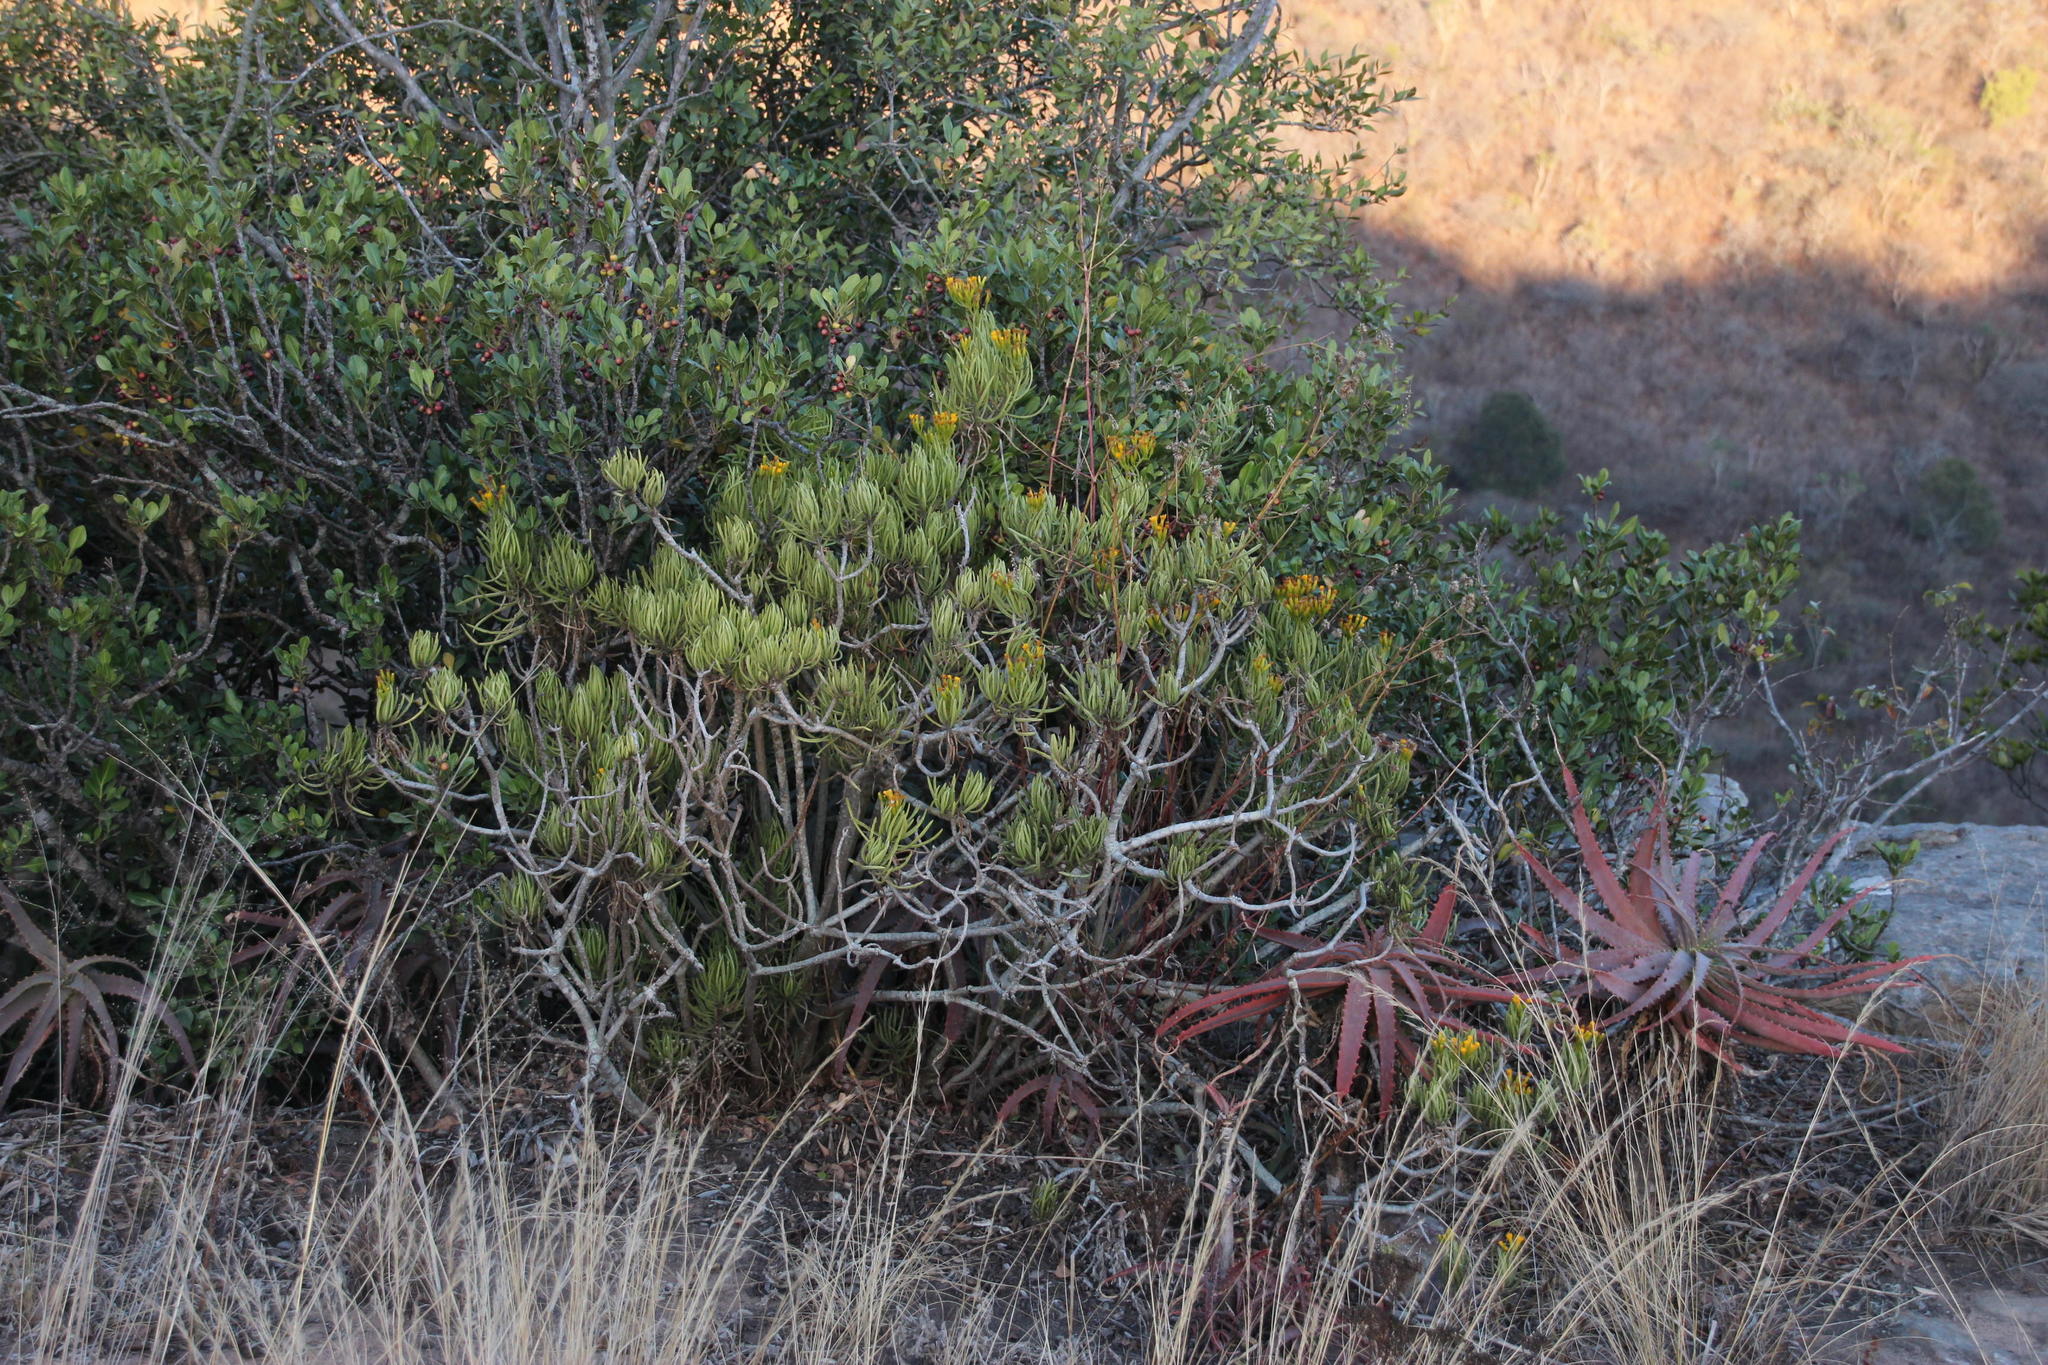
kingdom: Plantae
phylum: Tracheophyta
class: Magnoliopsida
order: Asterales
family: Asteraceae
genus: Kleinia
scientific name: Kleinia barbertonica
